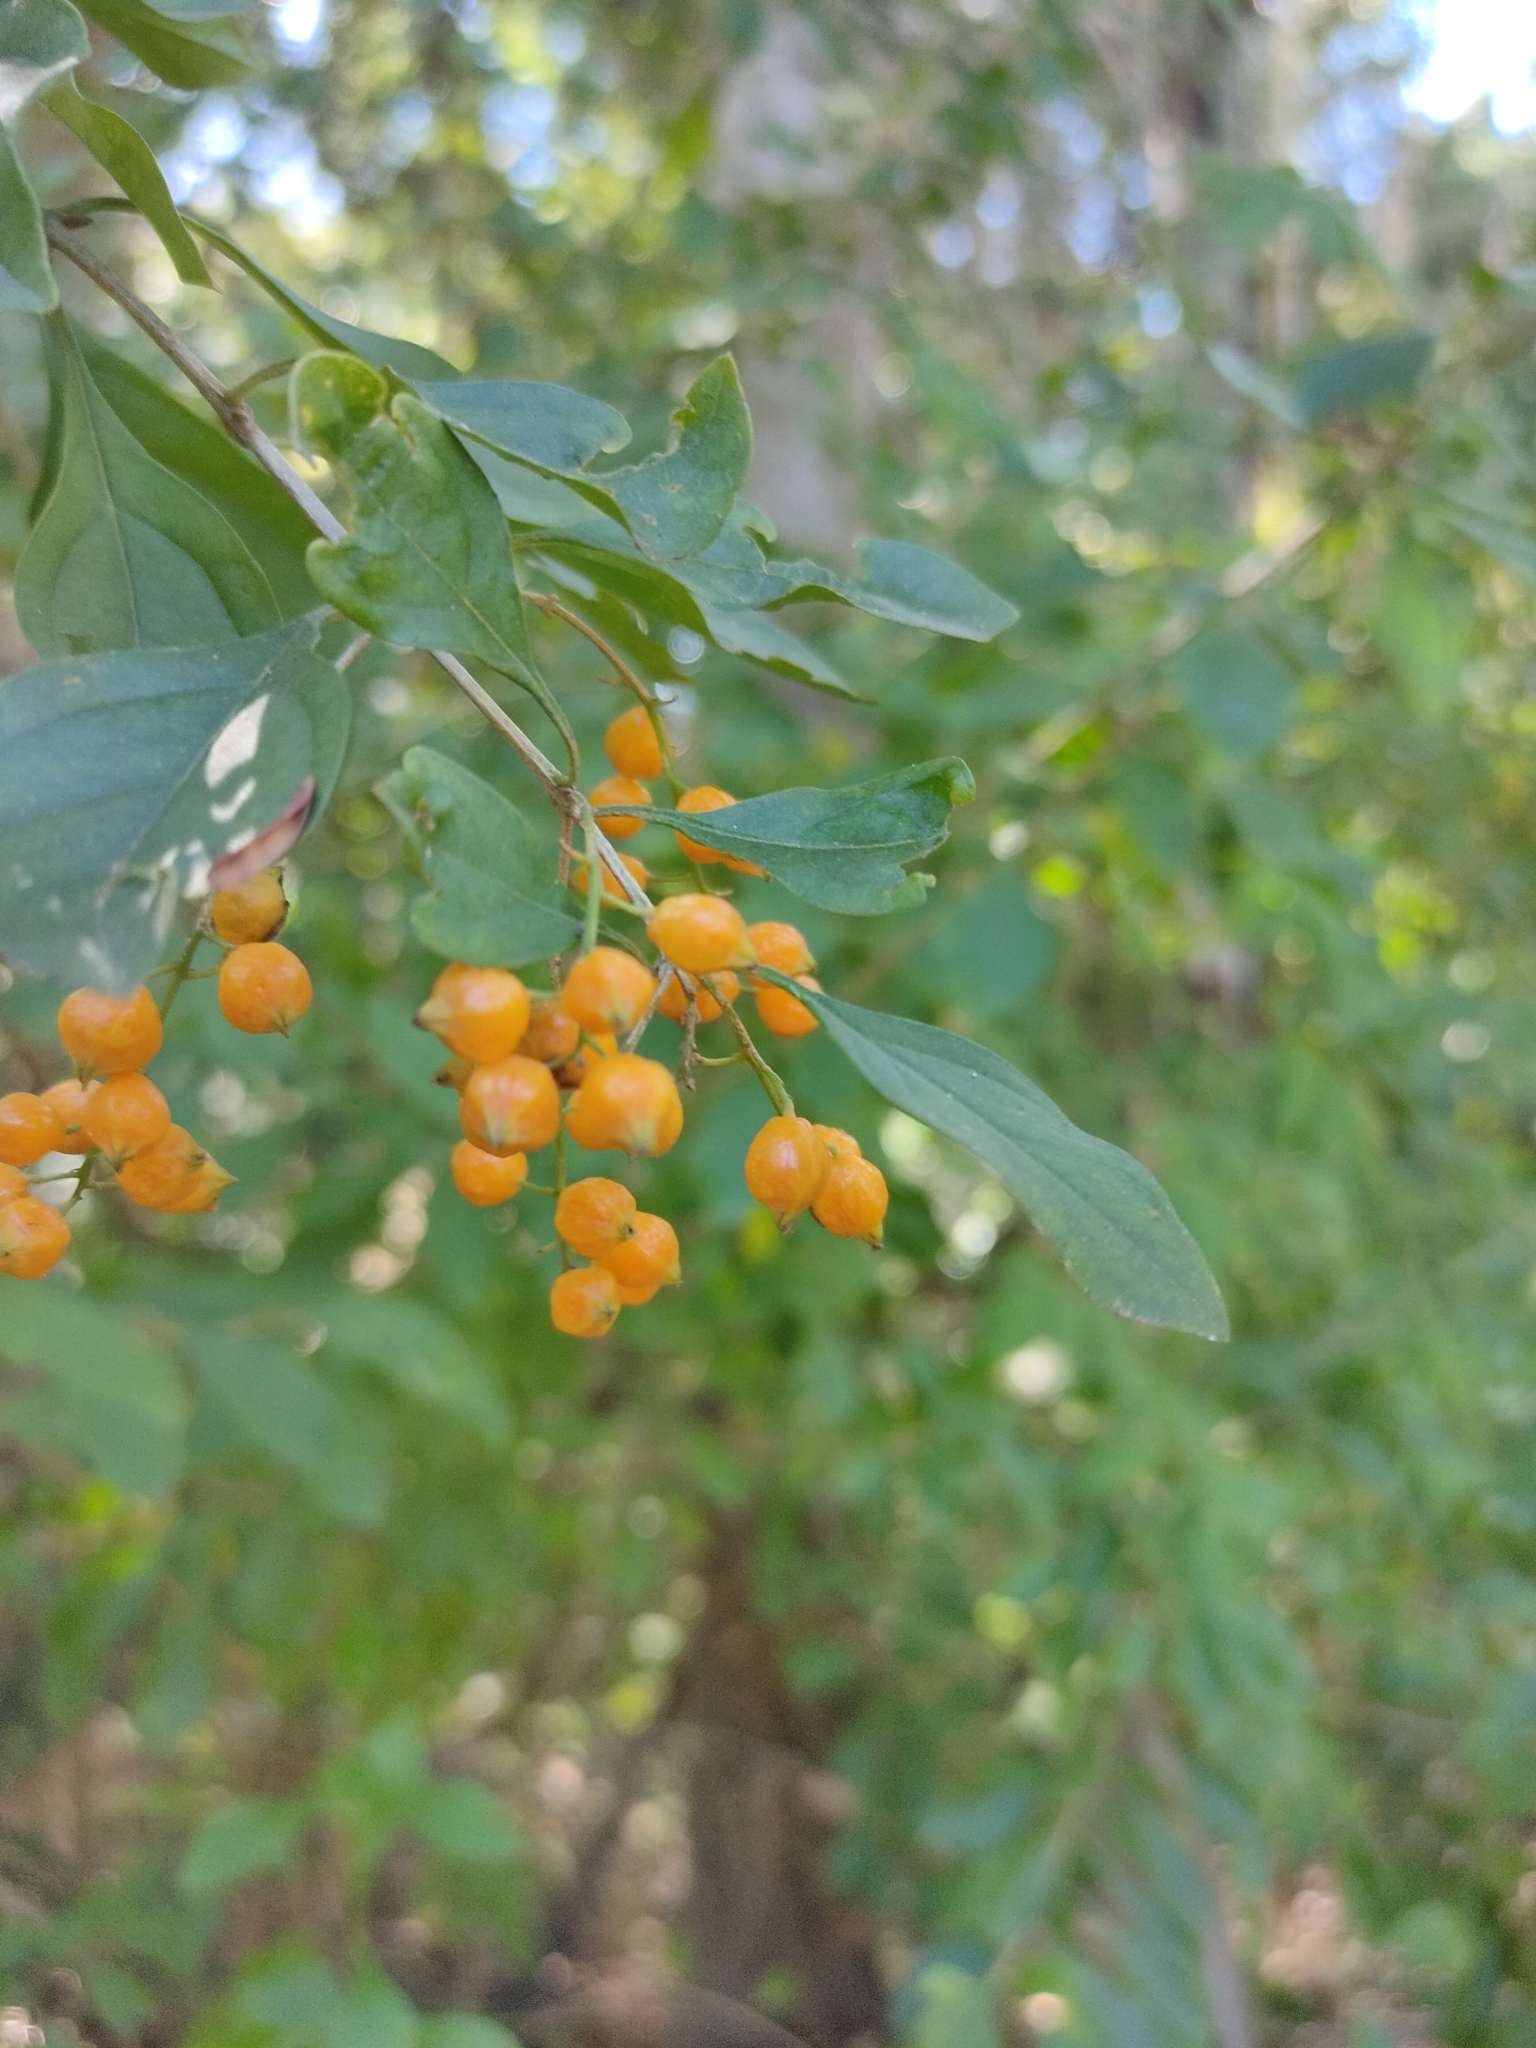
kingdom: Plantae
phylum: Tracheophyta
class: Magnoliopsida
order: Lamiales
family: Verbenaceae
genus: Duranta
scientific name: Duranta erecta
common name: Golden dewdrops
